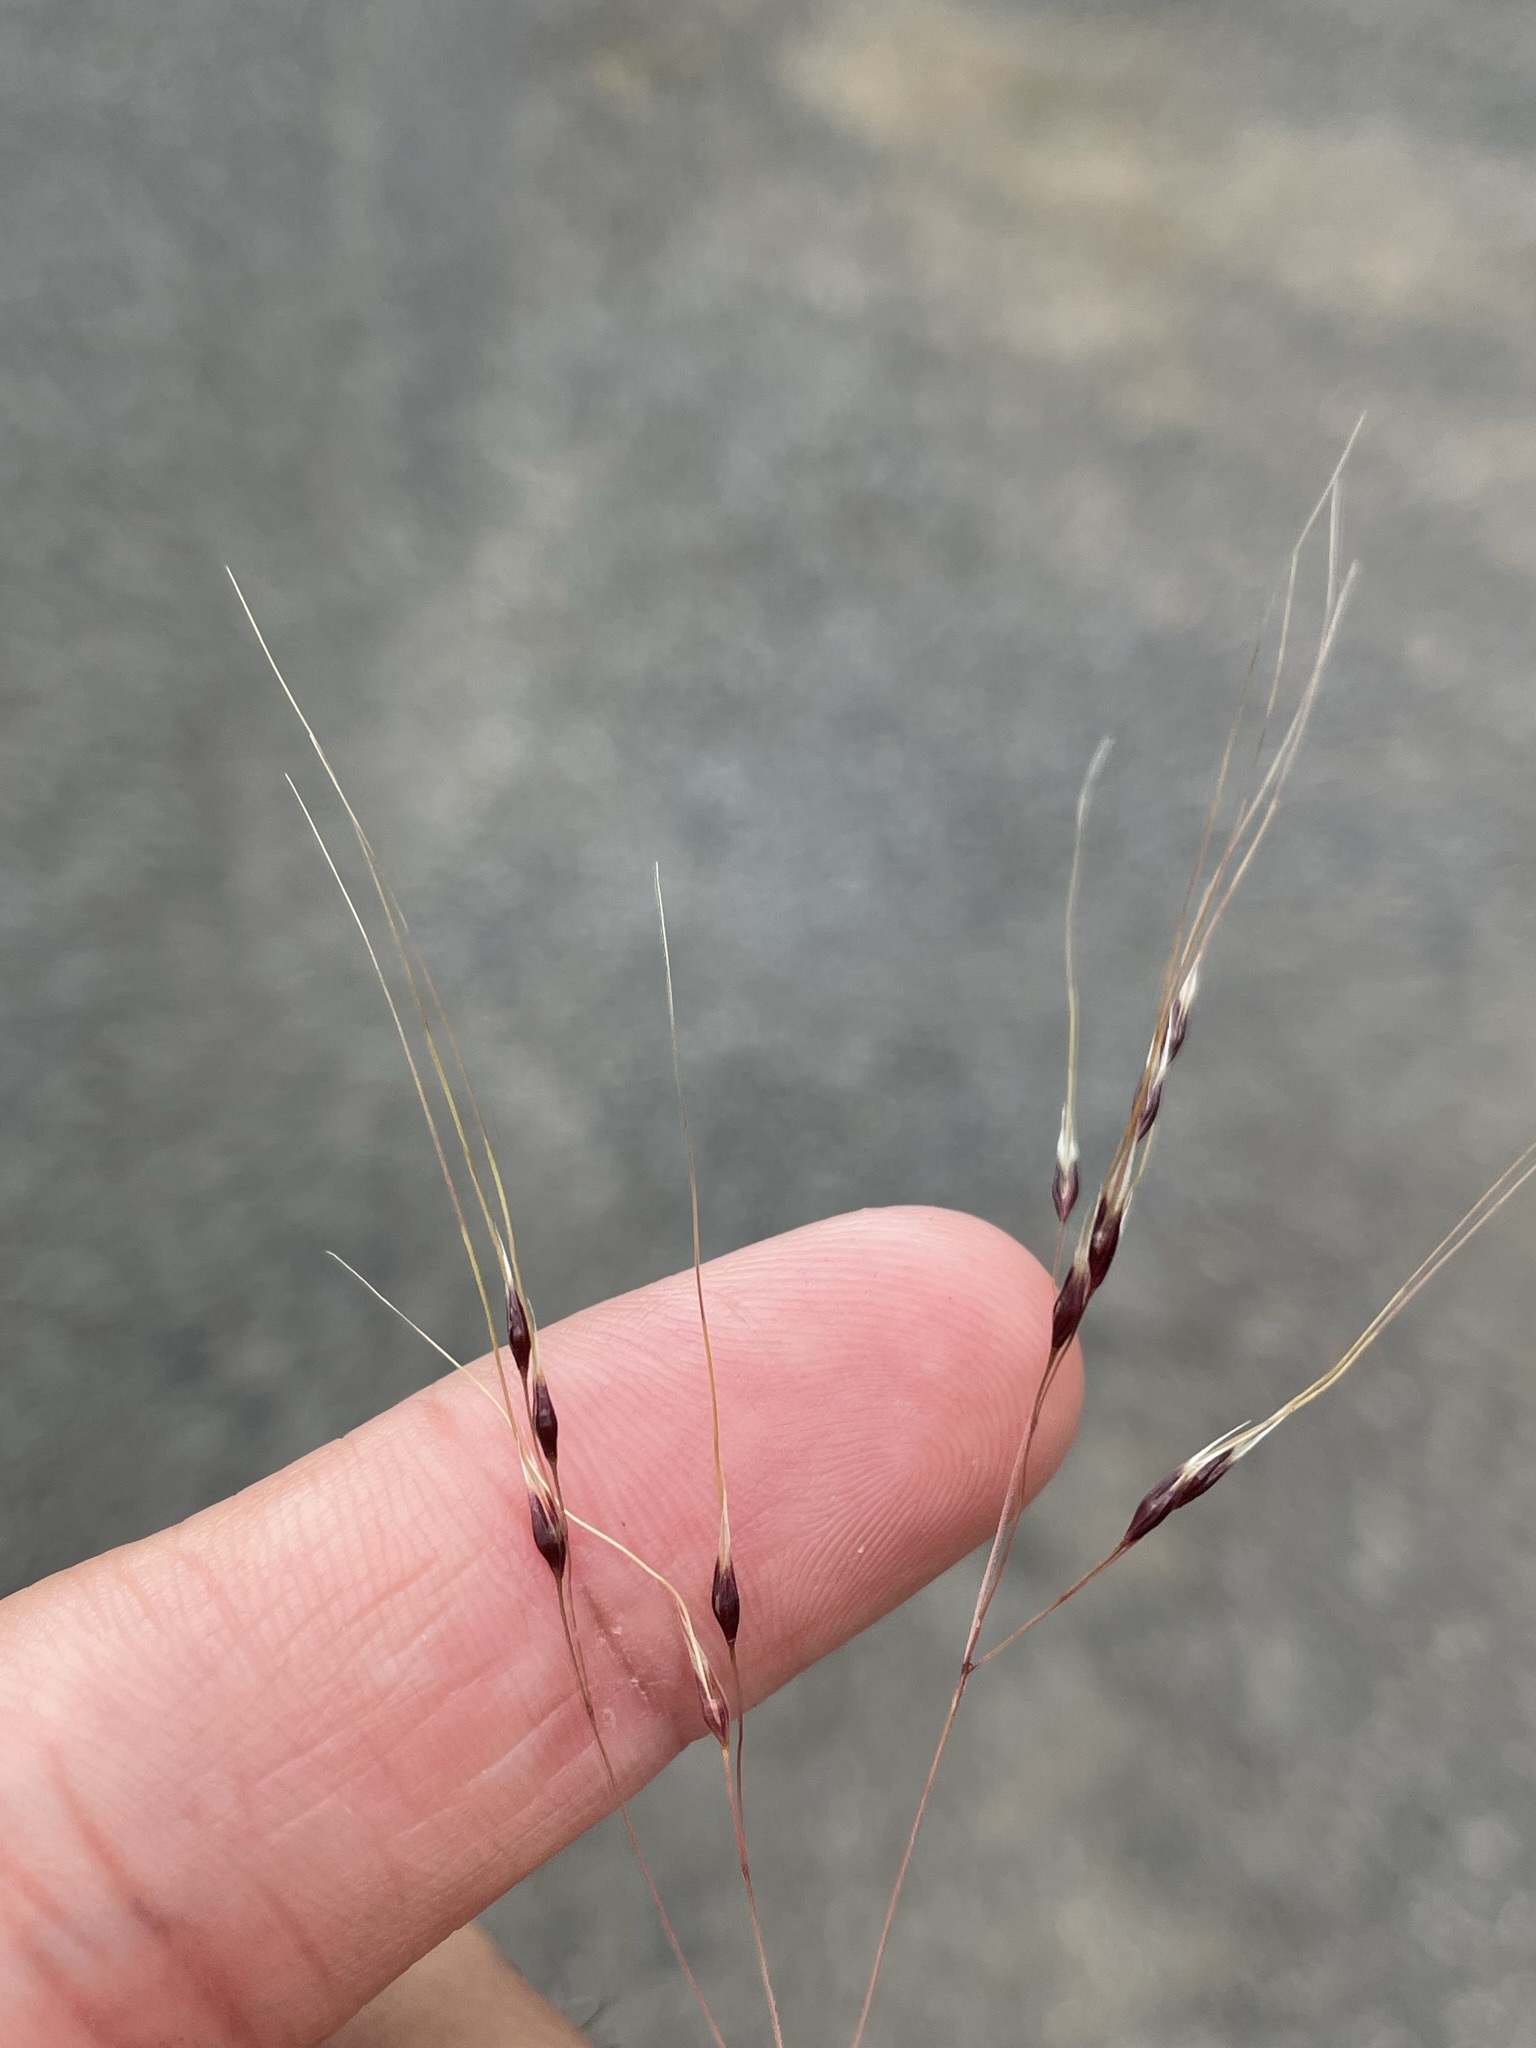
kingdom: Plantae
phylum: Tracheophyta
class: Liliopsida
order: Poales
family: Poaceae
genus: Nassella
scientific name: Nassella trichotoma
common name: Serrated tussock grass
